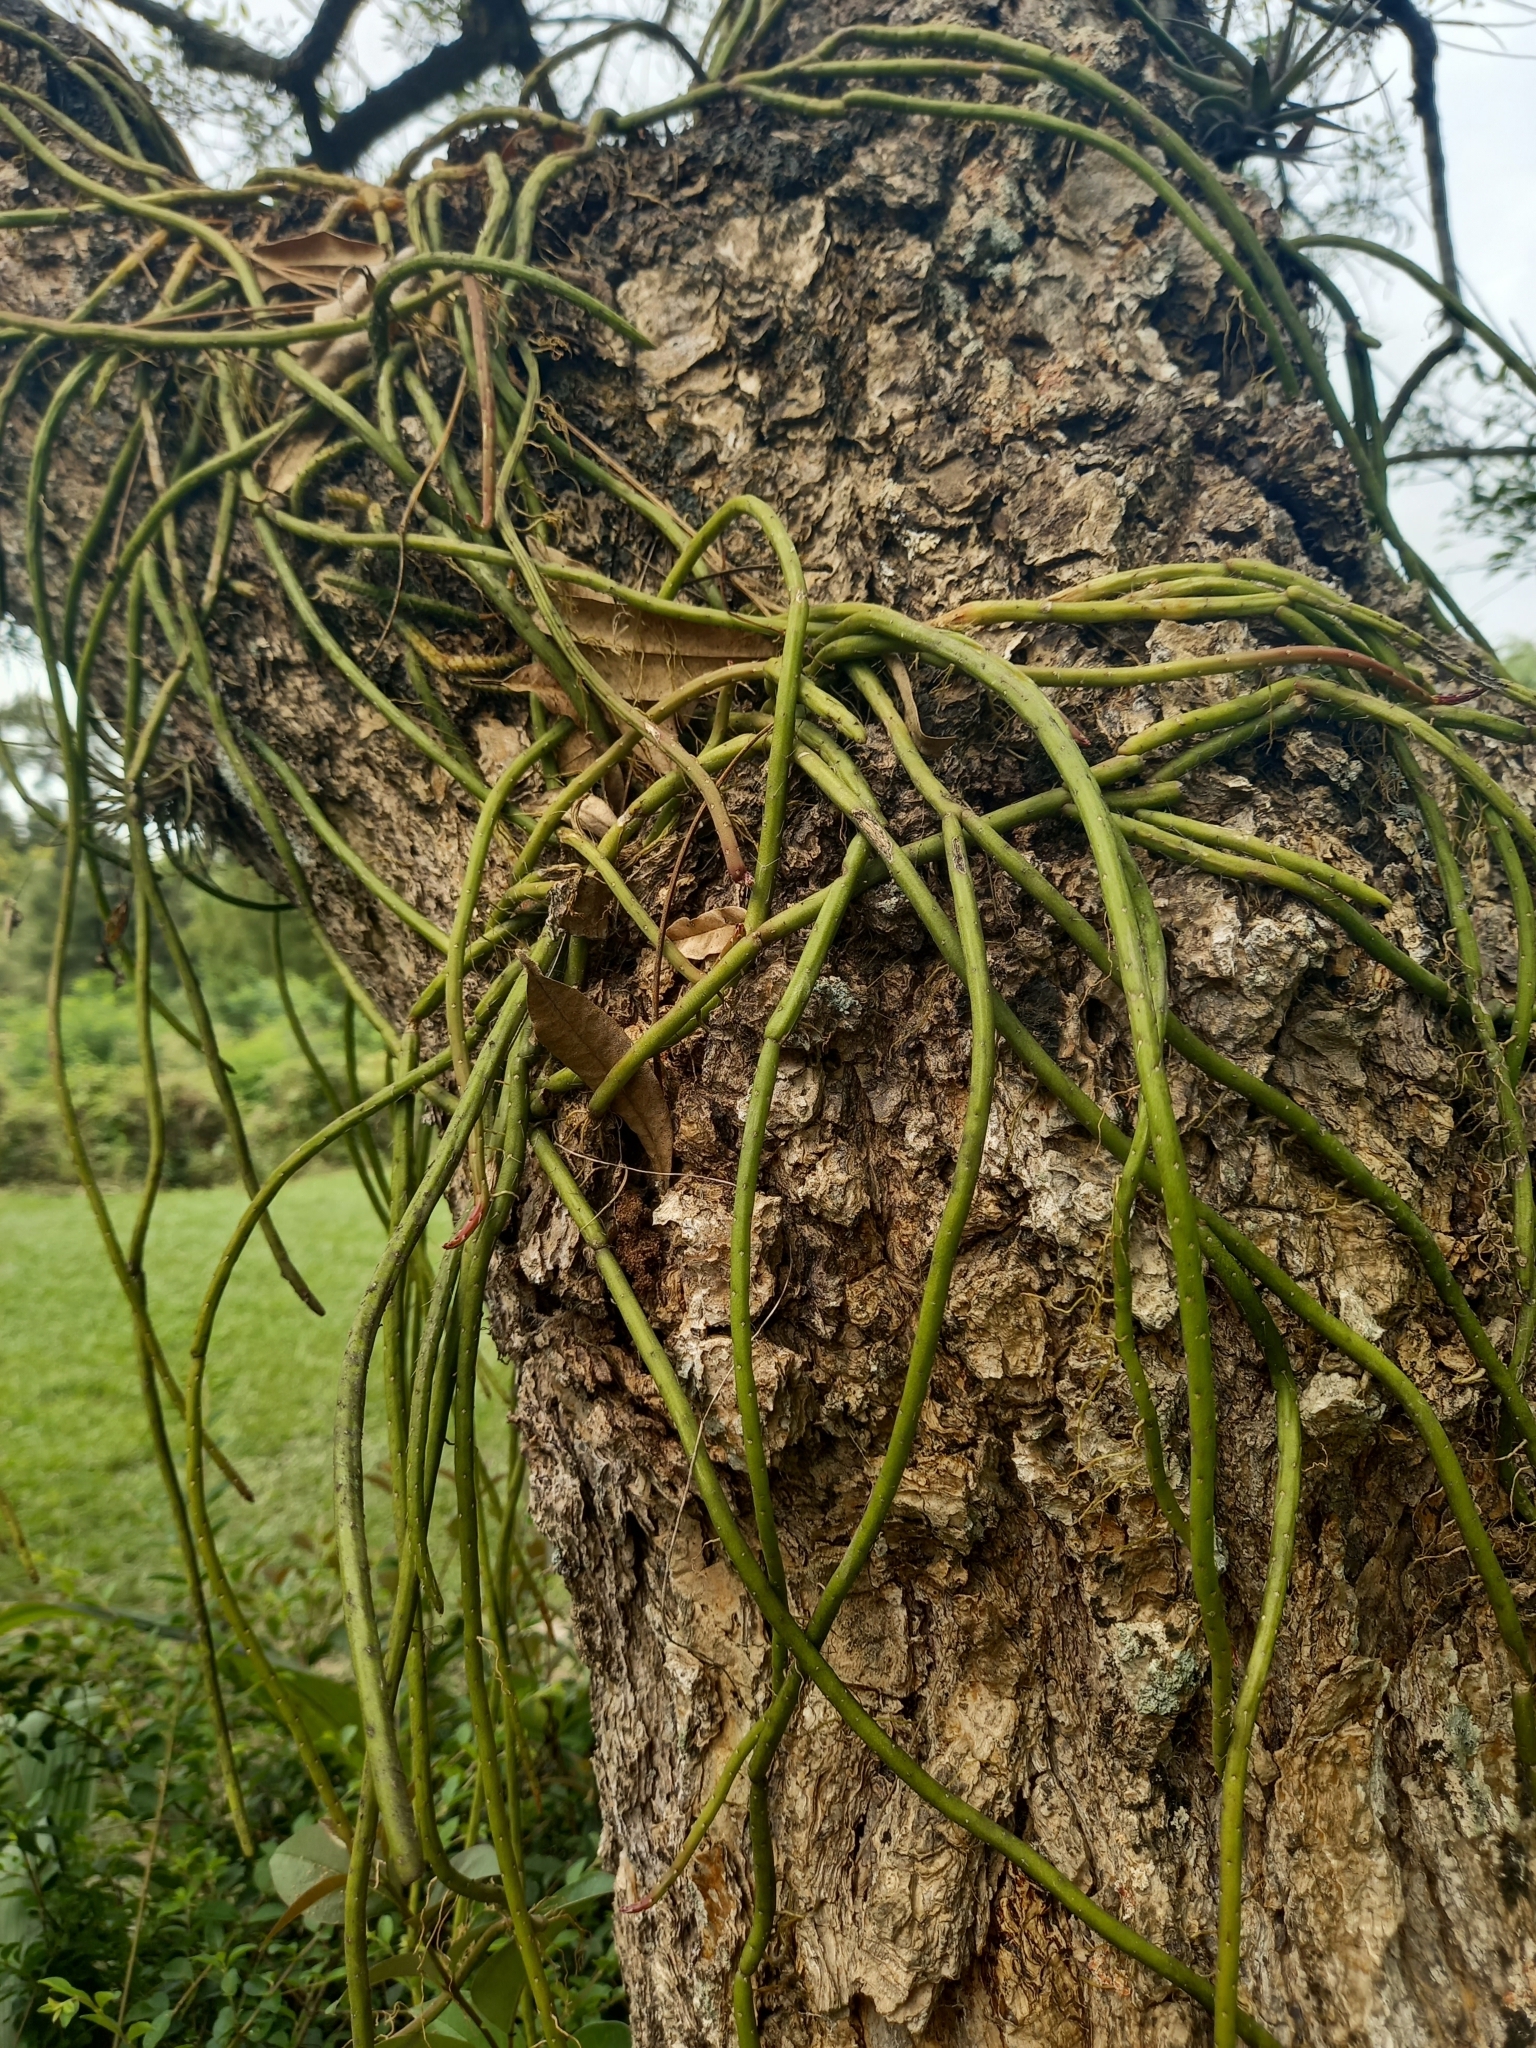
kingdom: Plantae
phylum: Tracheophyta
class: Magnoliopsida
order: Caryophyllales
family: Cactaceae
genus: Lepismium
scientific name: Lepismium lumbricoides
